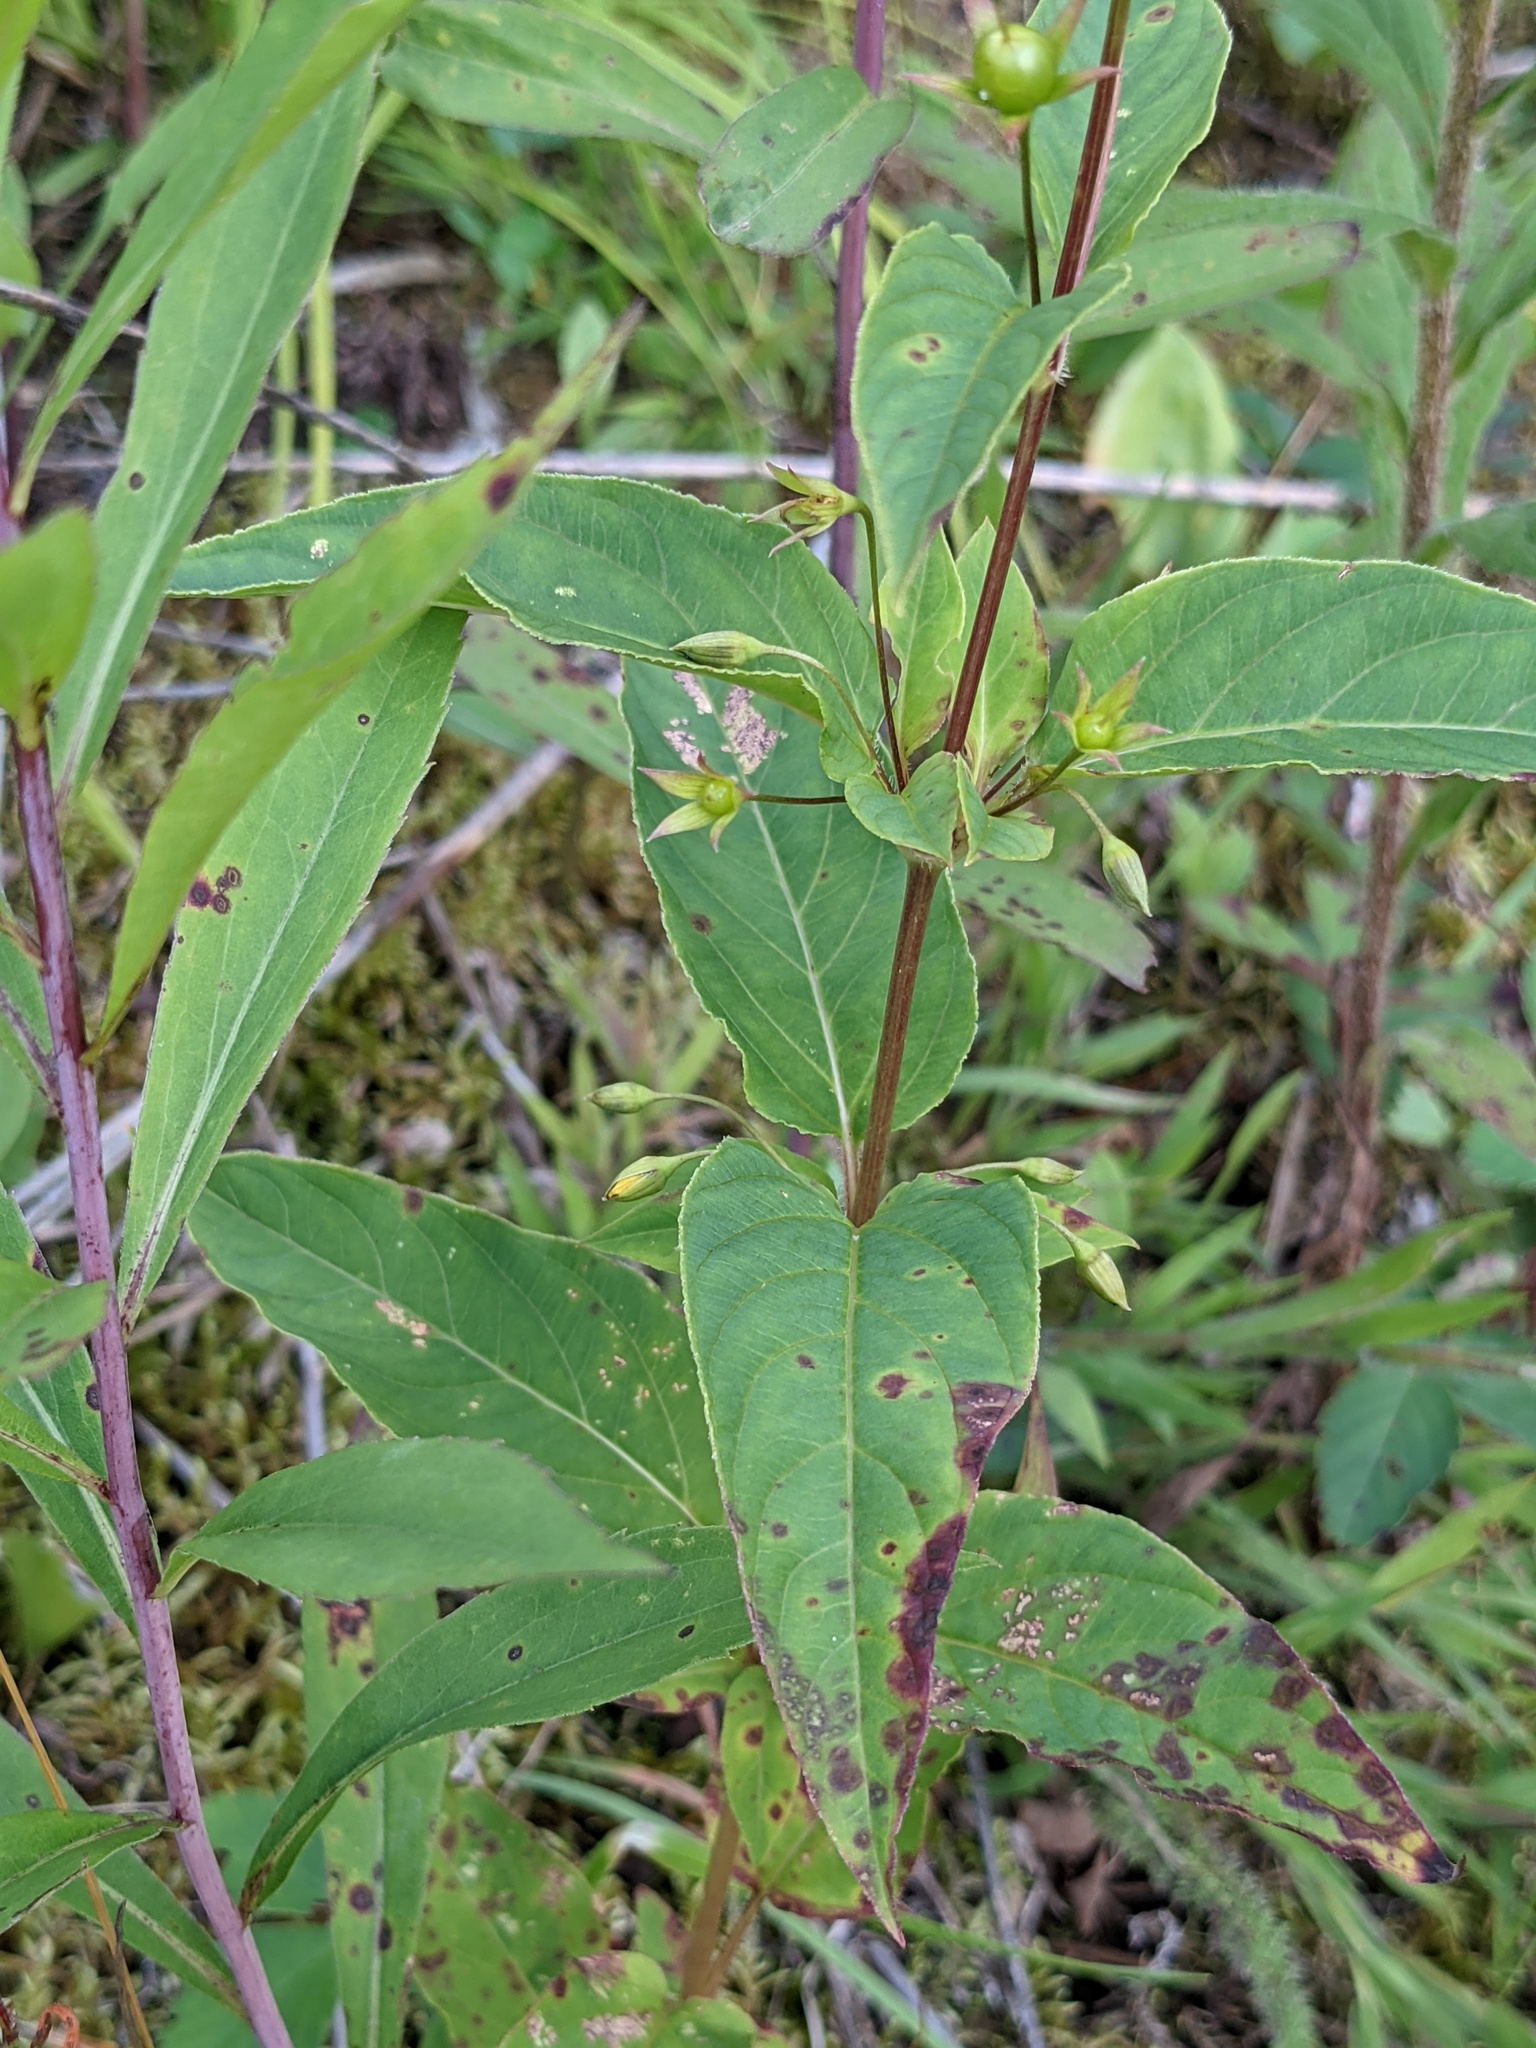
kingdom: Plantae
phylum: Tracheophyta
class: Magnoliopsida
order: Ericales
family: Primulaceae
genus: Lysimachia
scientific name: Lysimachia ciliata
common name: Fringed loosestrife
